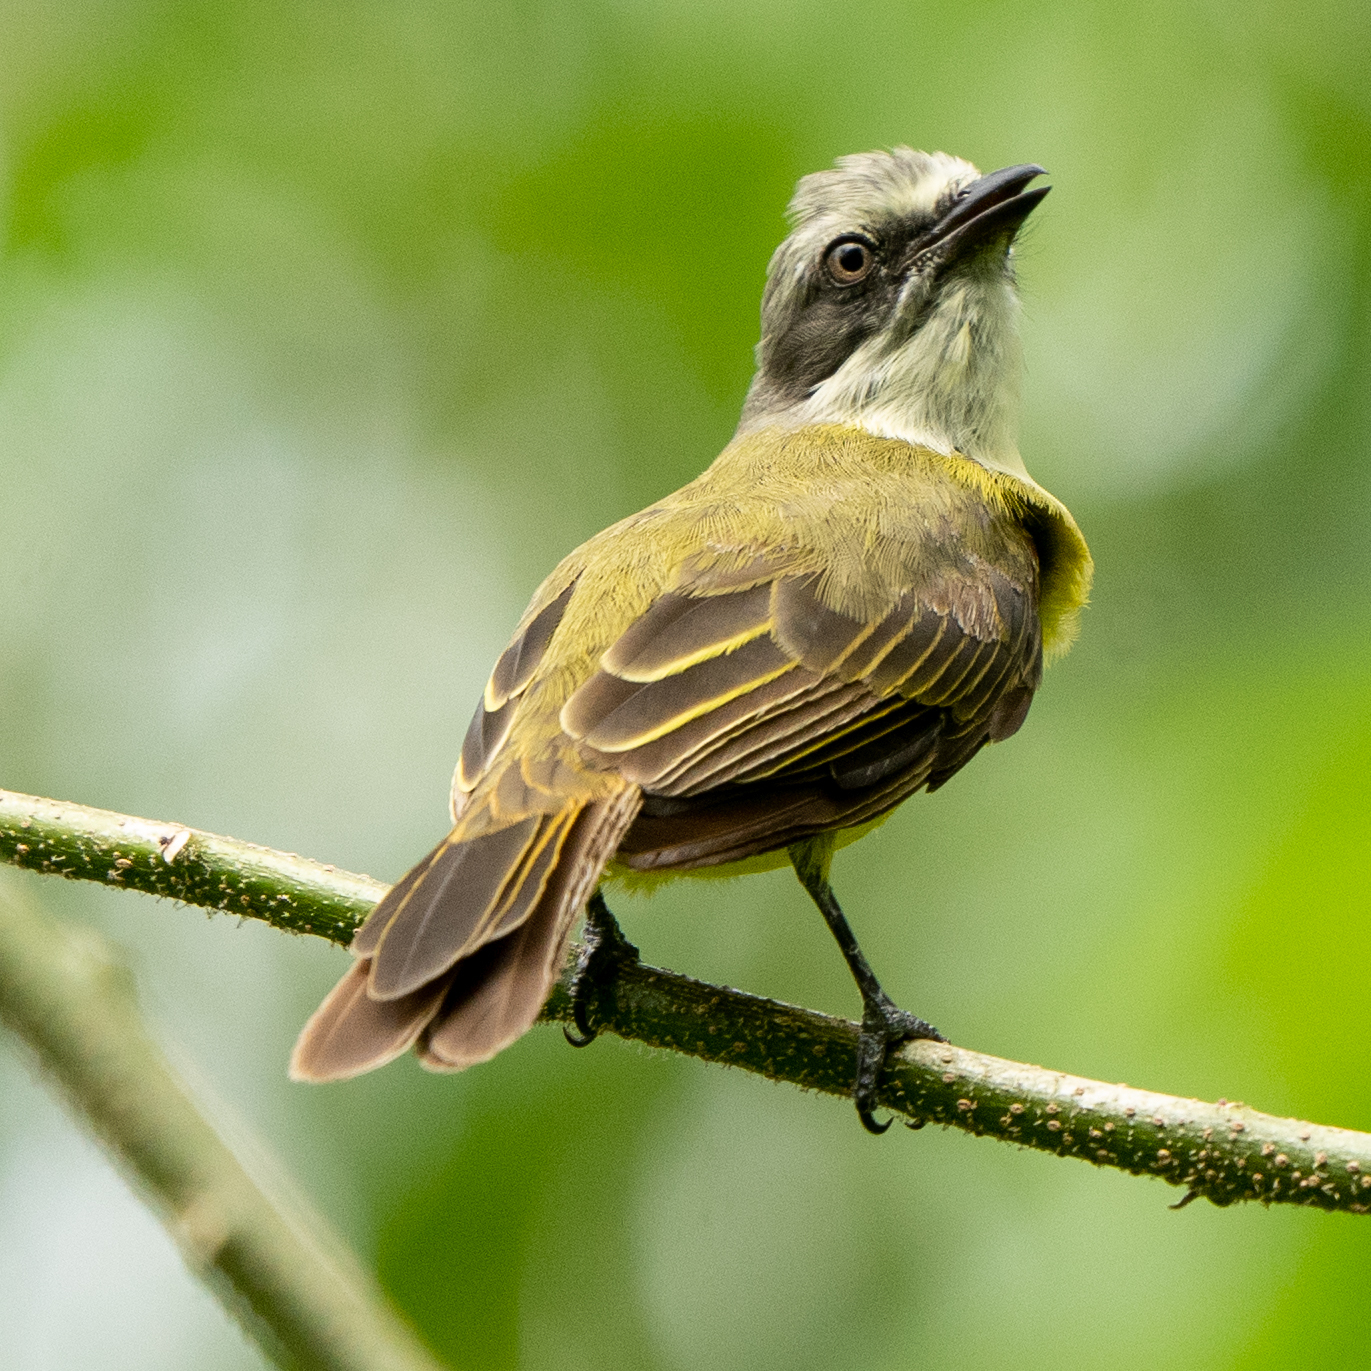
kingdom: Animalia
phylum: Chordata
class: Aves
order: Passeriformes
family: Tyrannidae
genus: Myiozetetes
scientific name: Myiozetetes granadensis
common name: Gray-capped flycatcher
